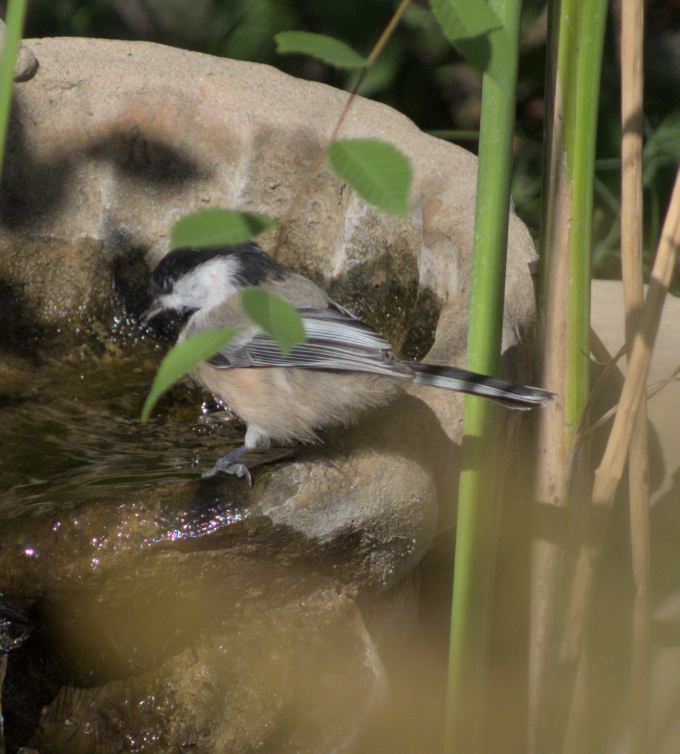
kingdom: Animalia
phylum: Chordata
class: Aves
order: Passeriformes
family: Paridae
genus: Poecile
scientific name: Poecile atricapillus
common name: Black-capped chickadee
